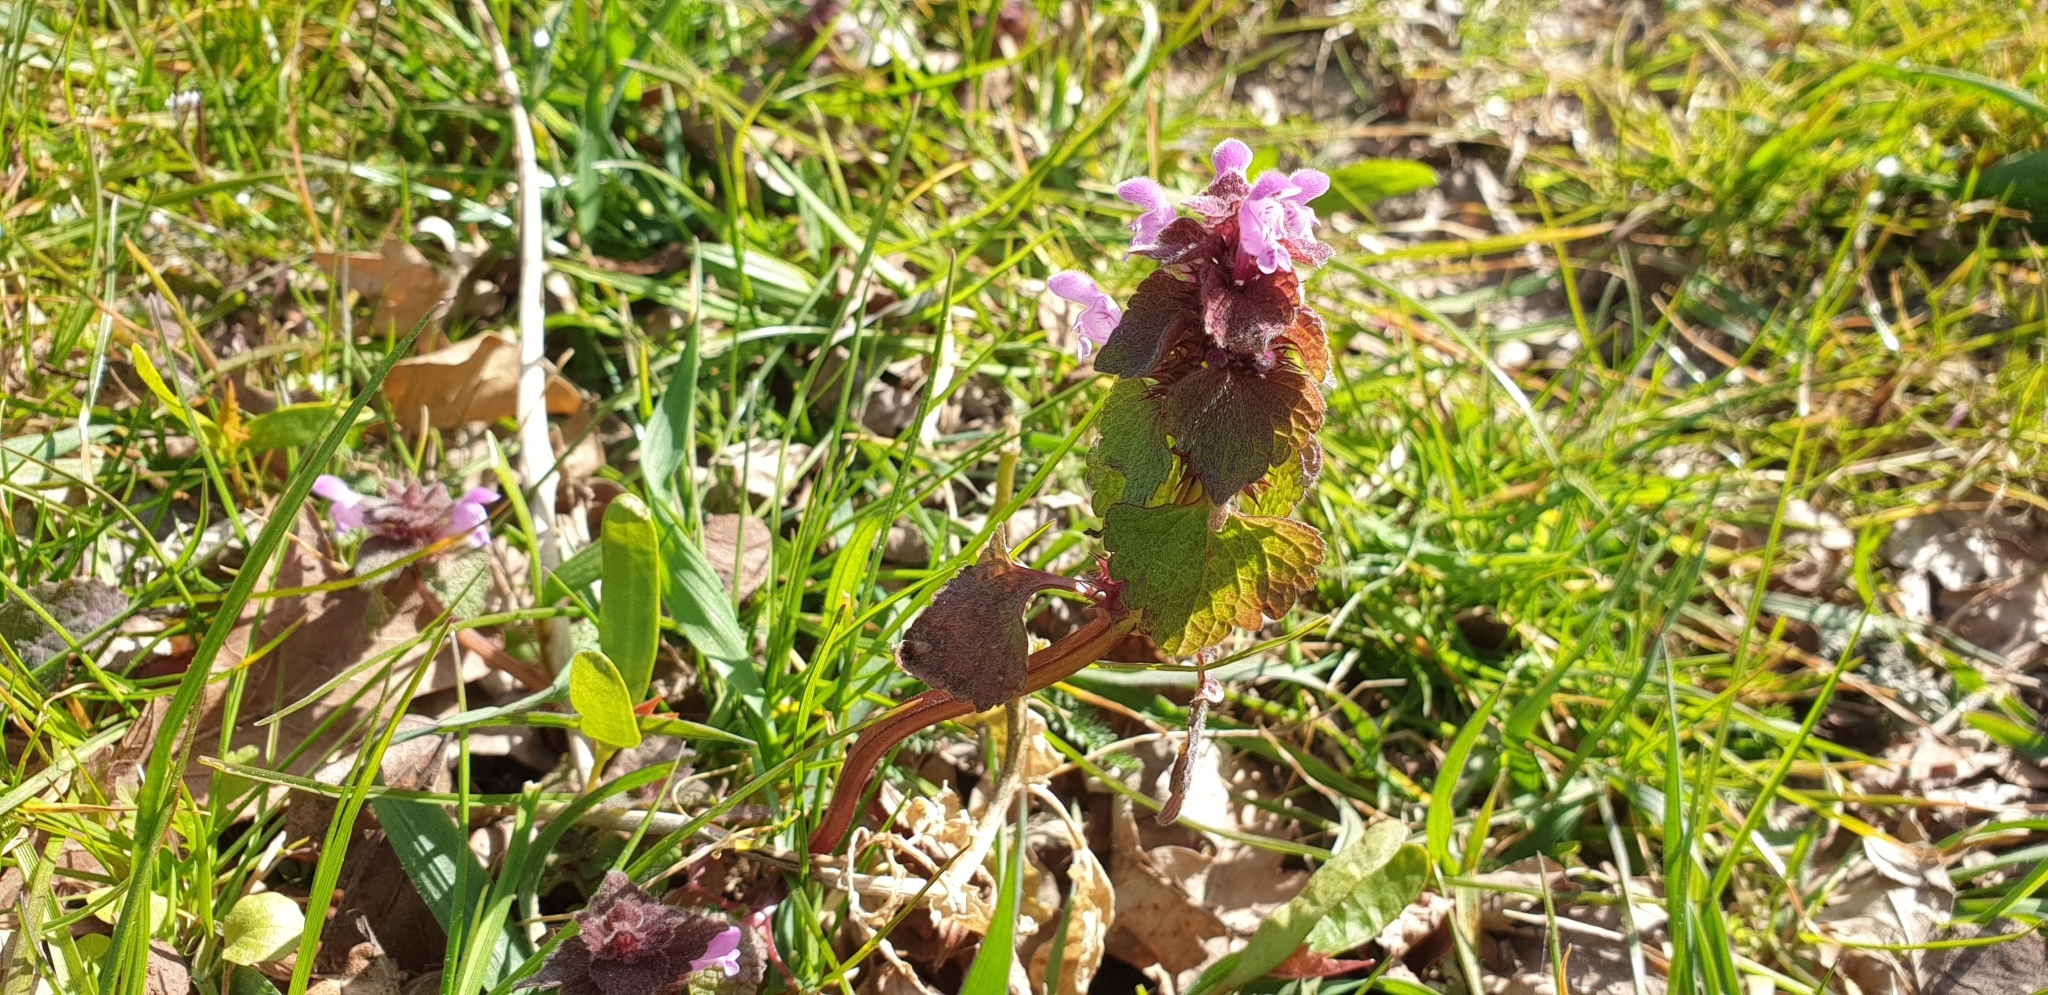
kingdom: Plantae
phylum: Tracheophyta
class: Magnoliopsida
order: Lamiales
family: Lamiaceae
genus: Lamium
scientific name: Lamium purpureum
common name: Red dead-nettle
